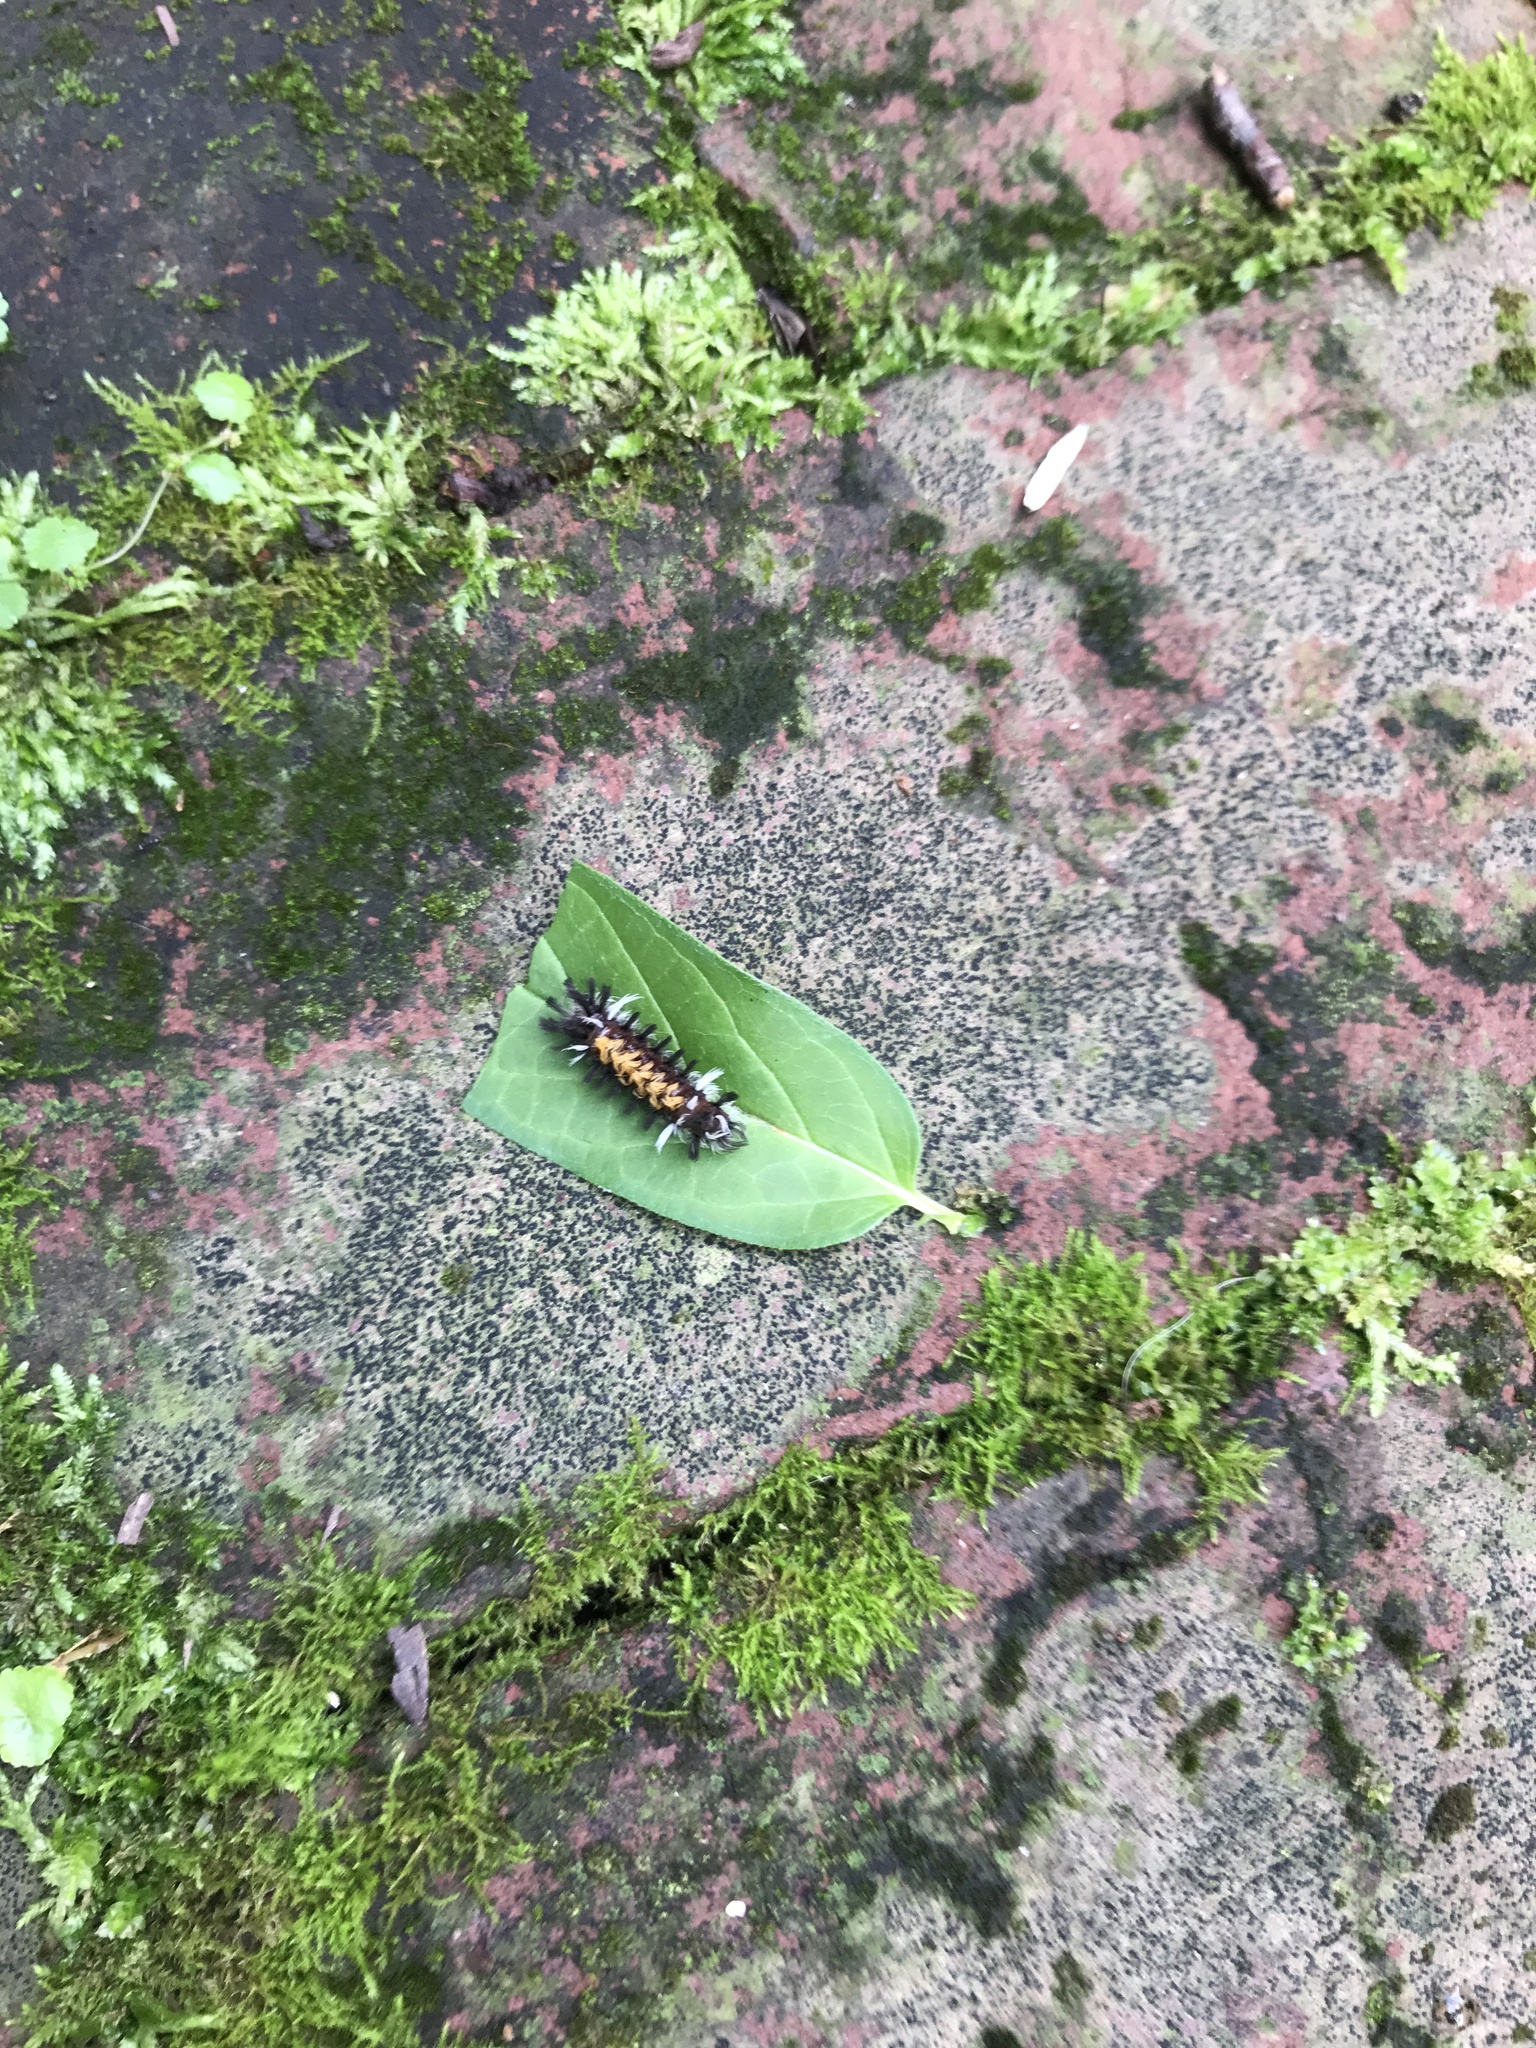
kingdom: Animalia
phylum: Arthropoda
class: Insecta
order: Lepidoptera
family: Erebidae
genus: Euchaetes
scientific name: Euchaetes egle
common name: Milkweed tussock moth
